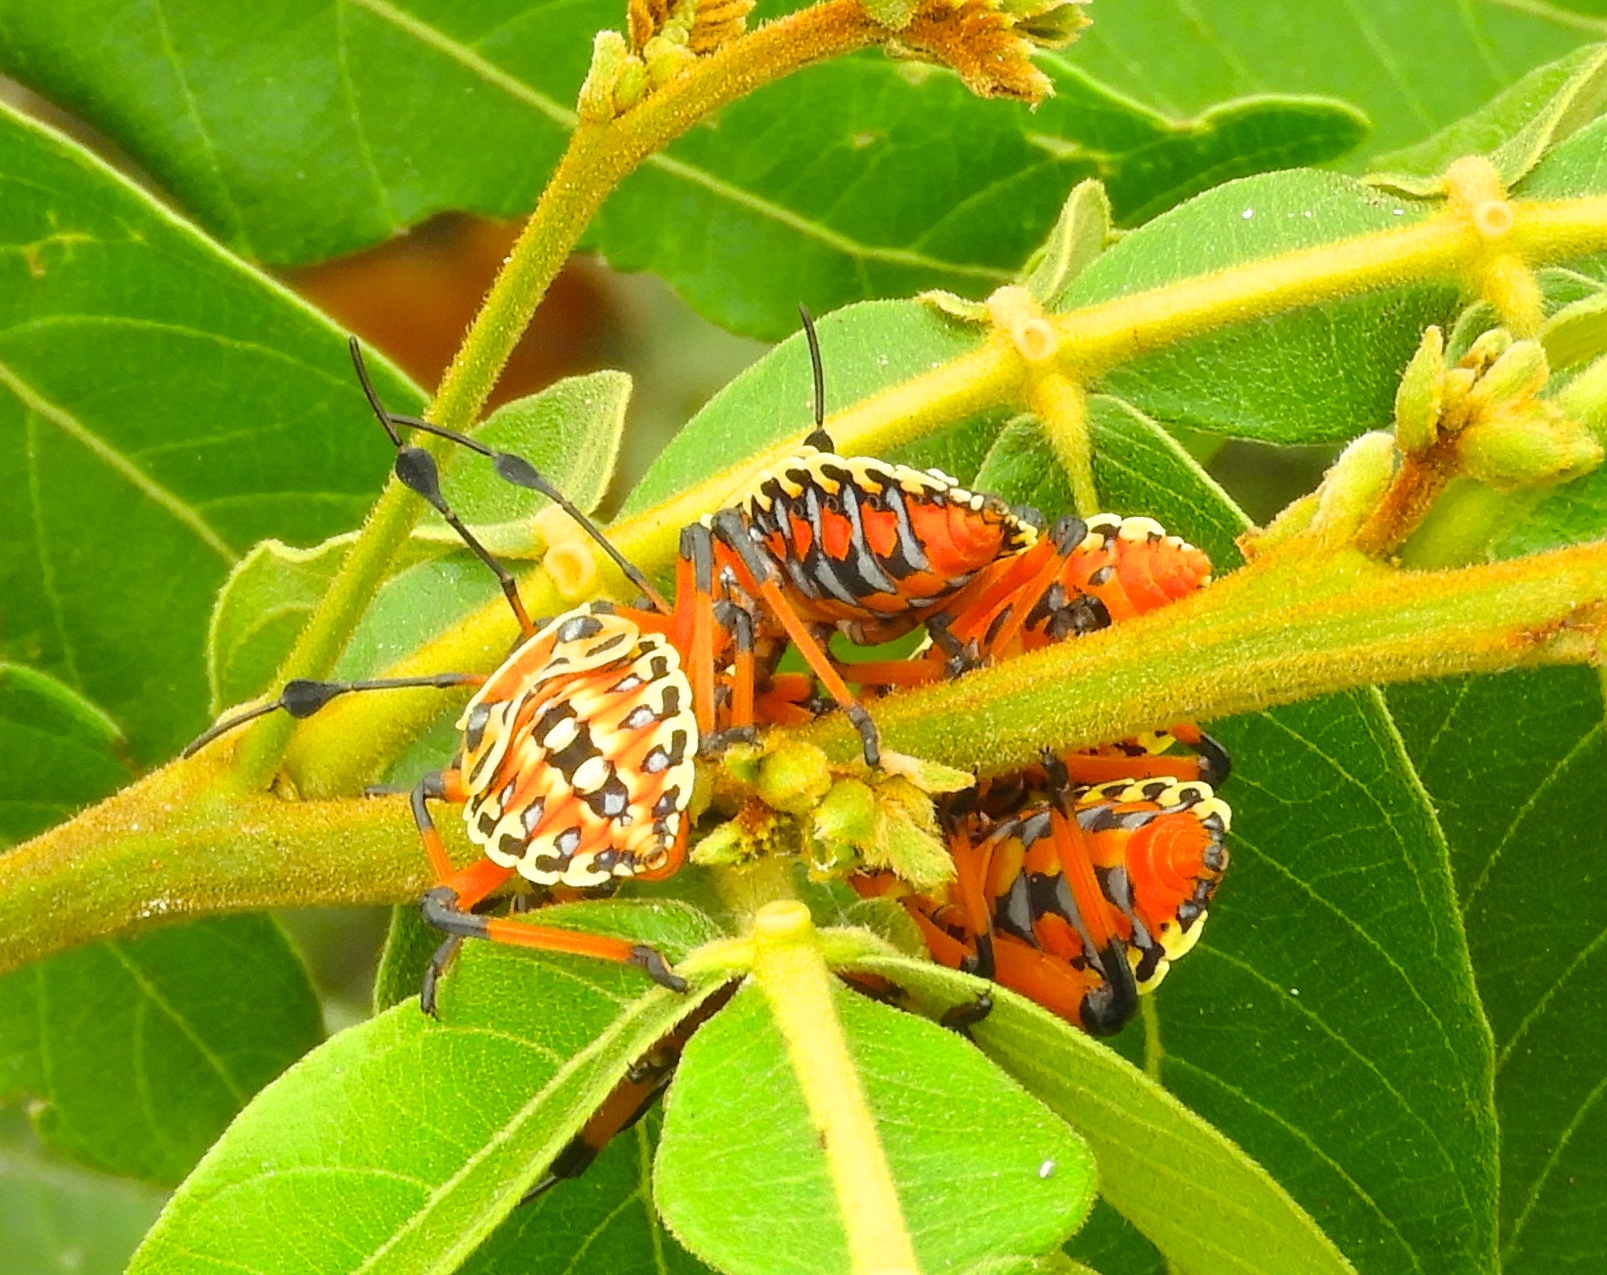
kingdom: Animalia
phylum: Arthropoda
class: Insecta
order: Hemiptera
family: Coreidae
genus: Pachylis
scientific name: Pachylis nervosus
